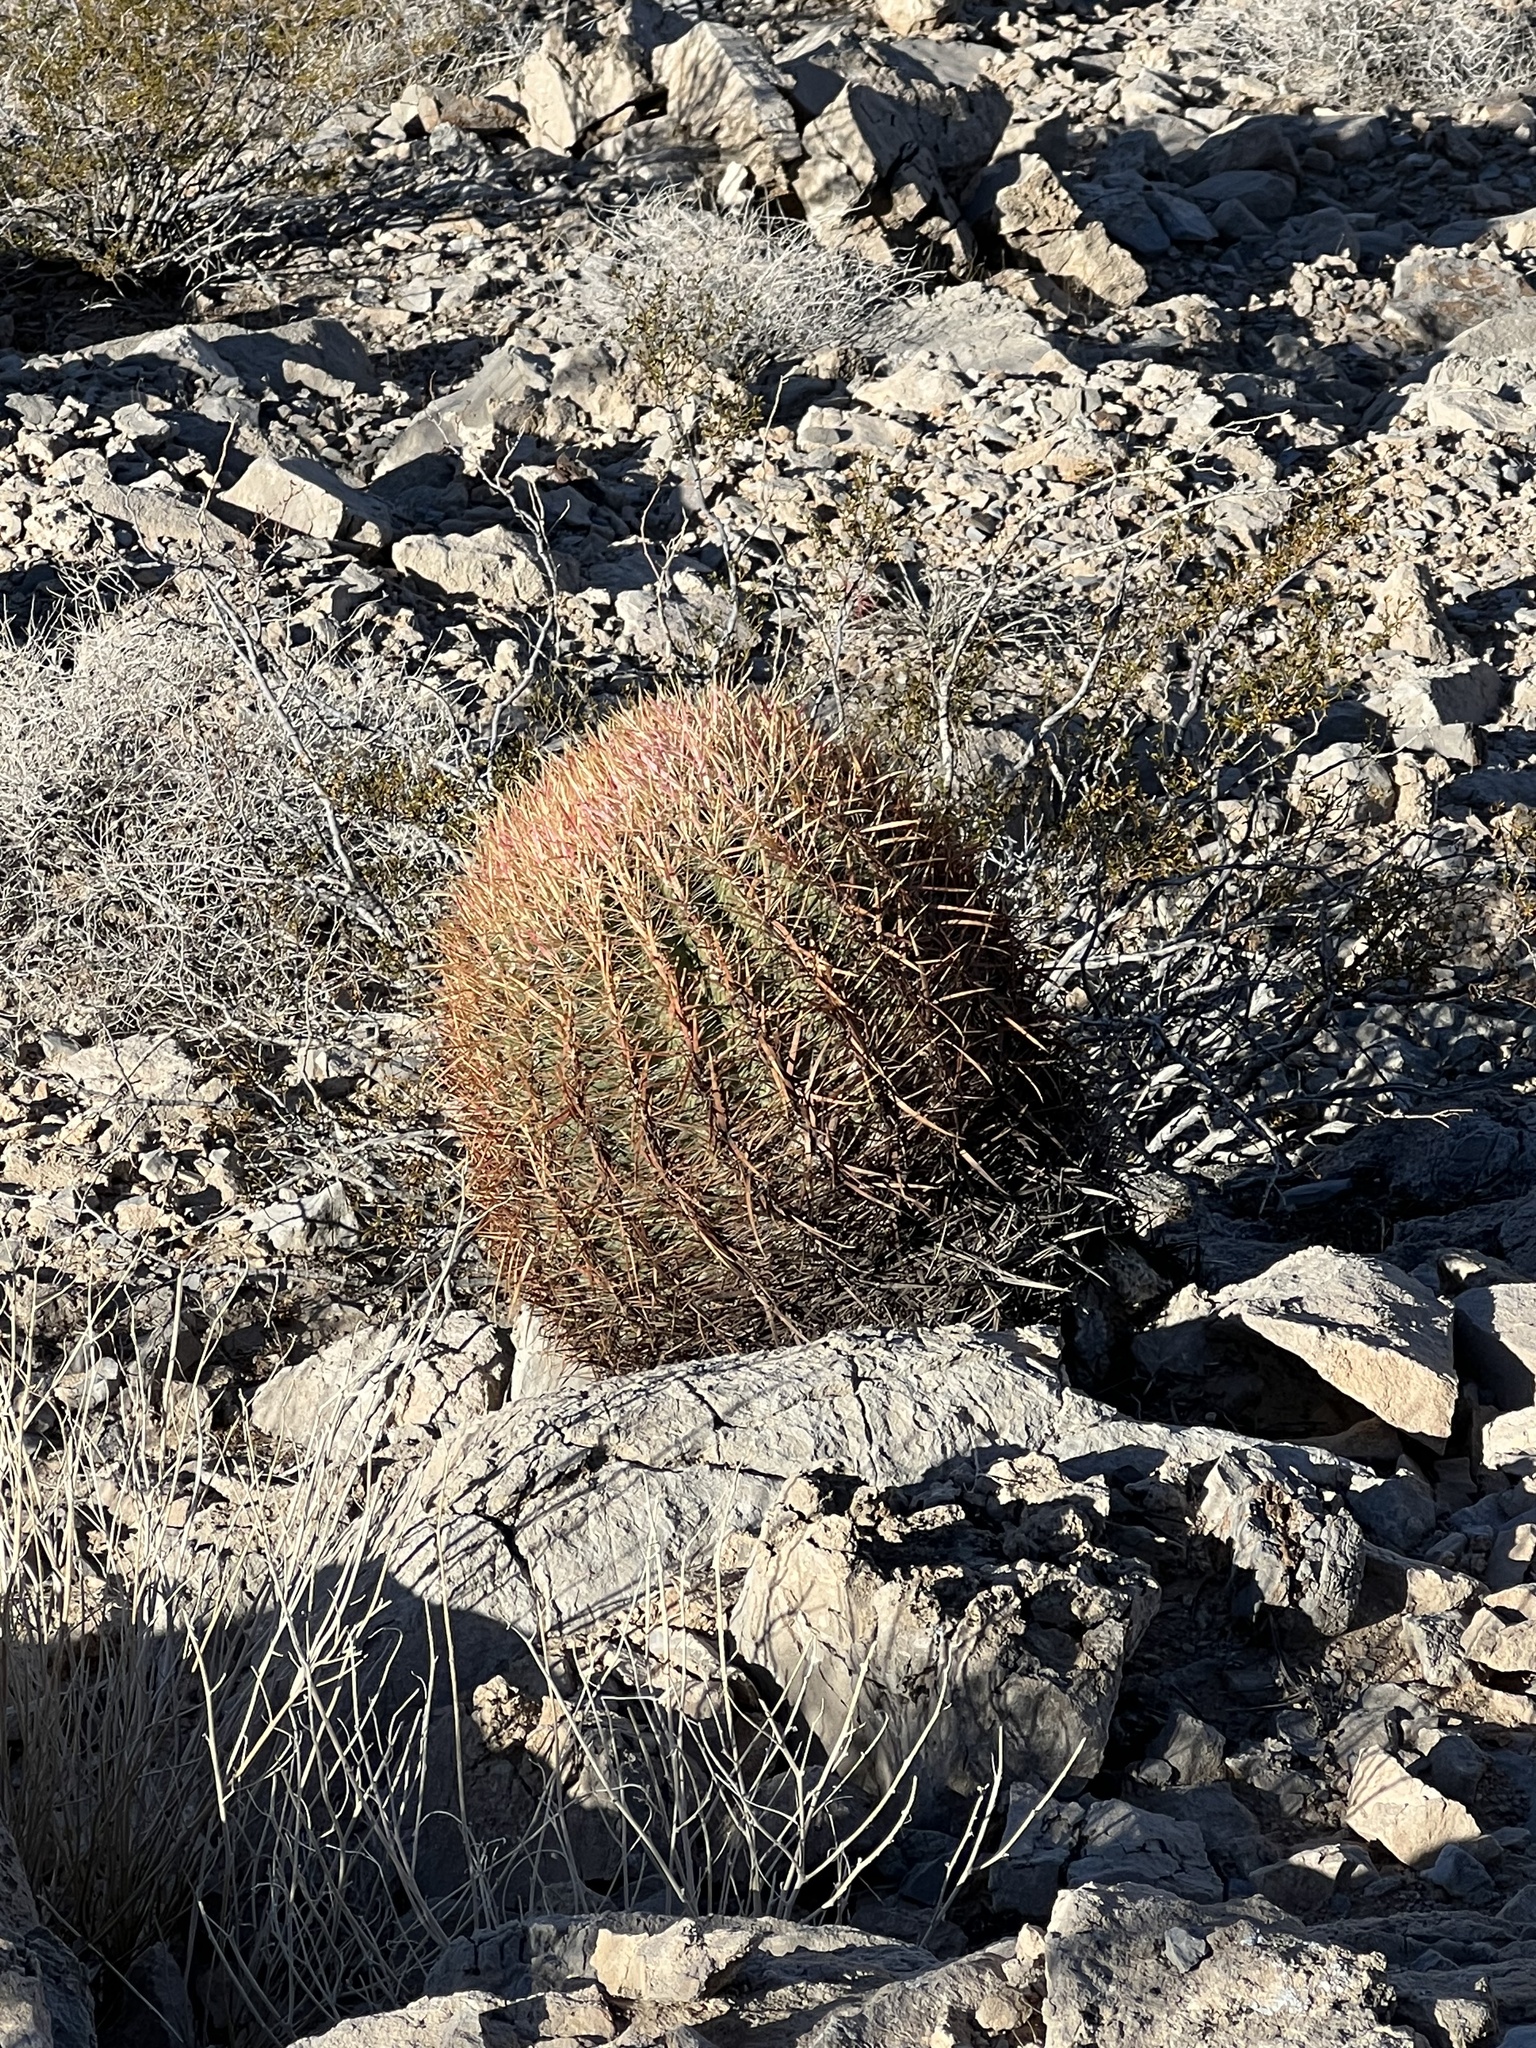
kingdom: Plantae
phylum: Tracheophyta
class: Magnoliopsida
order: Caryophyllales
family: Cactaceae
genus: Ferocactus
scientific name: Ferocactus cylindraceus
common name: California barrel cactus
